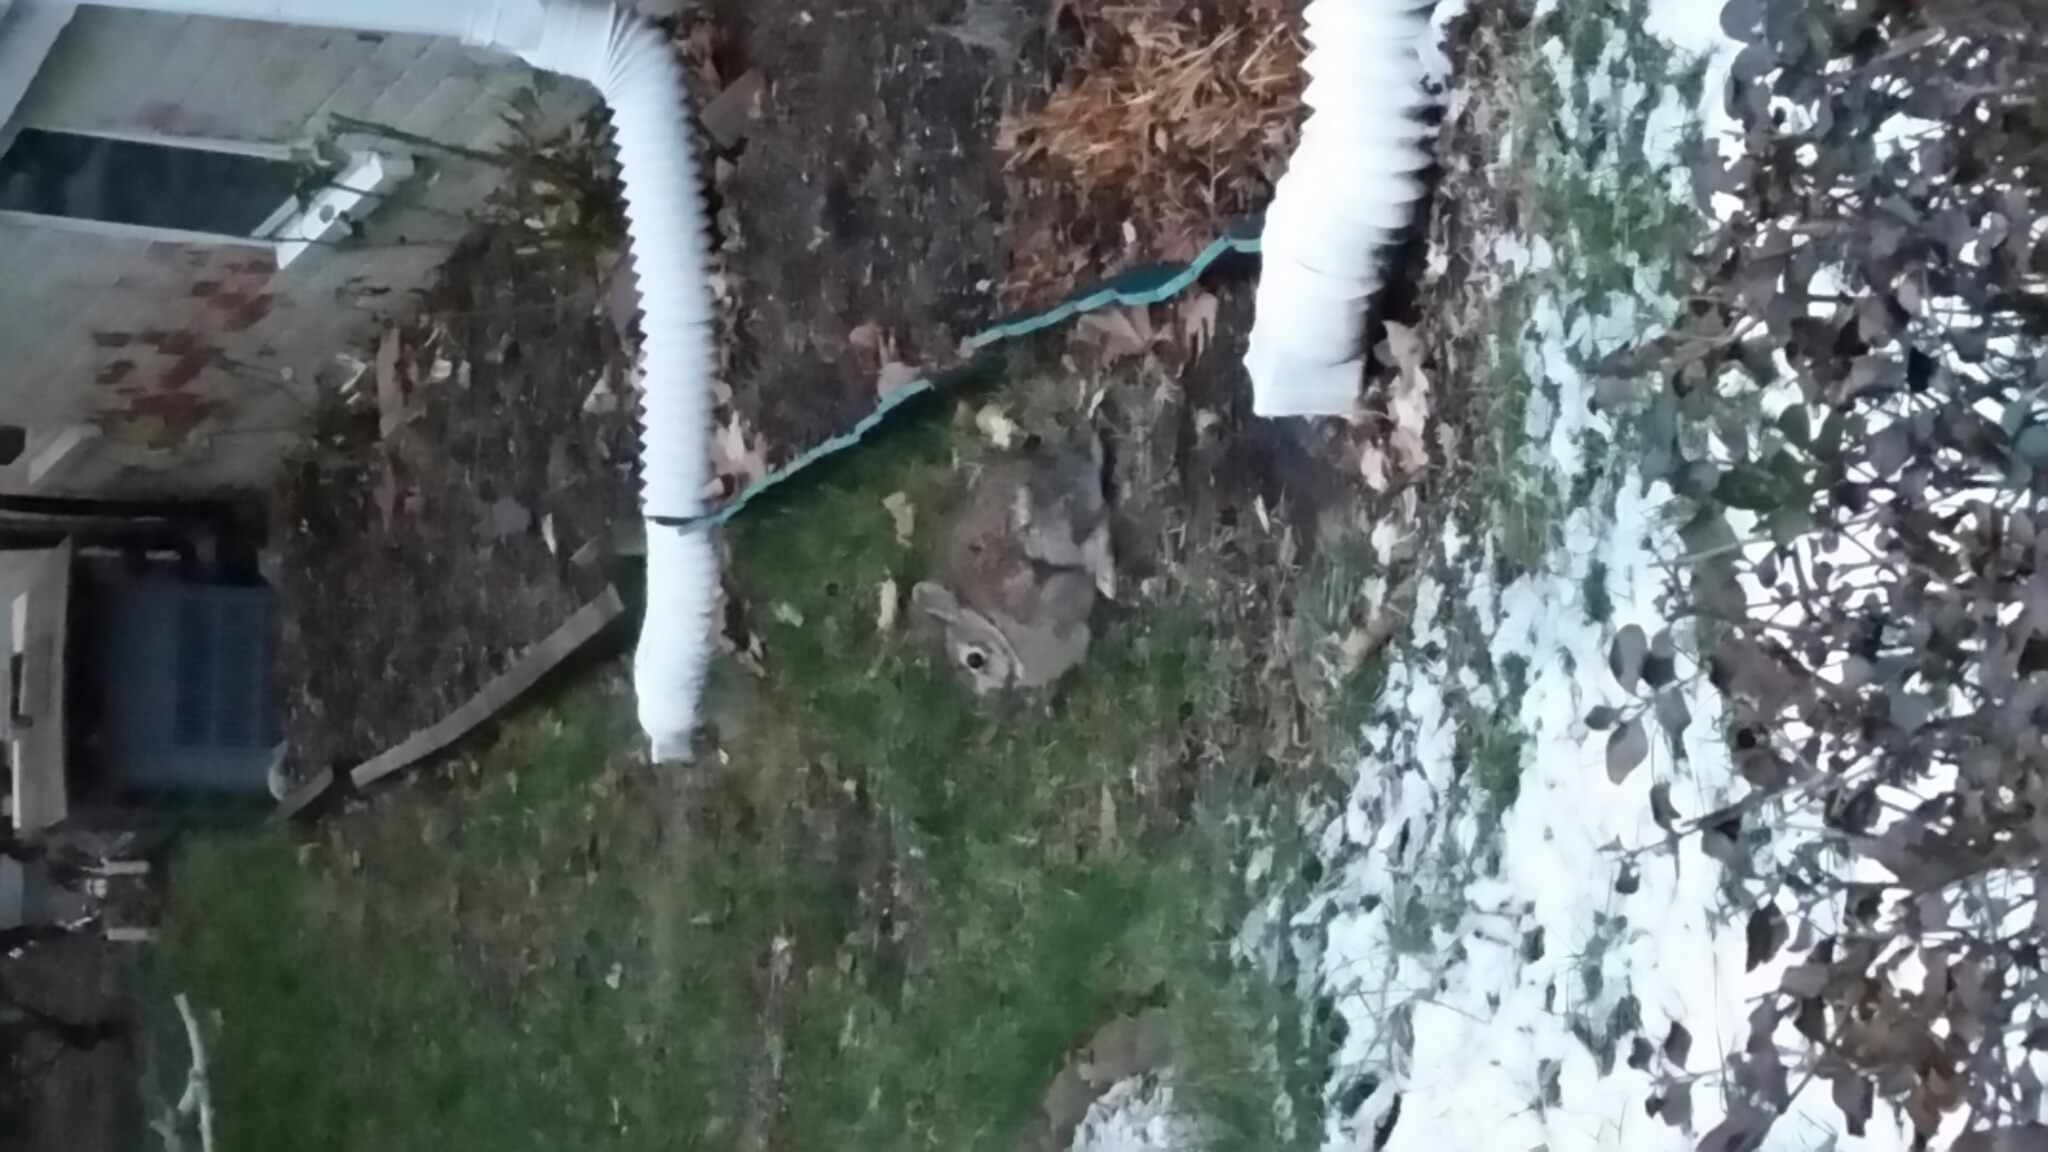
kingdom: Animalia
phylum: Chordata
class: Mammalia
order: Lagomorpha
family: Leporidae
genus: Sylvilagus
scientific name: Sylvilagus floridanus
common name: Eastern cottontail
